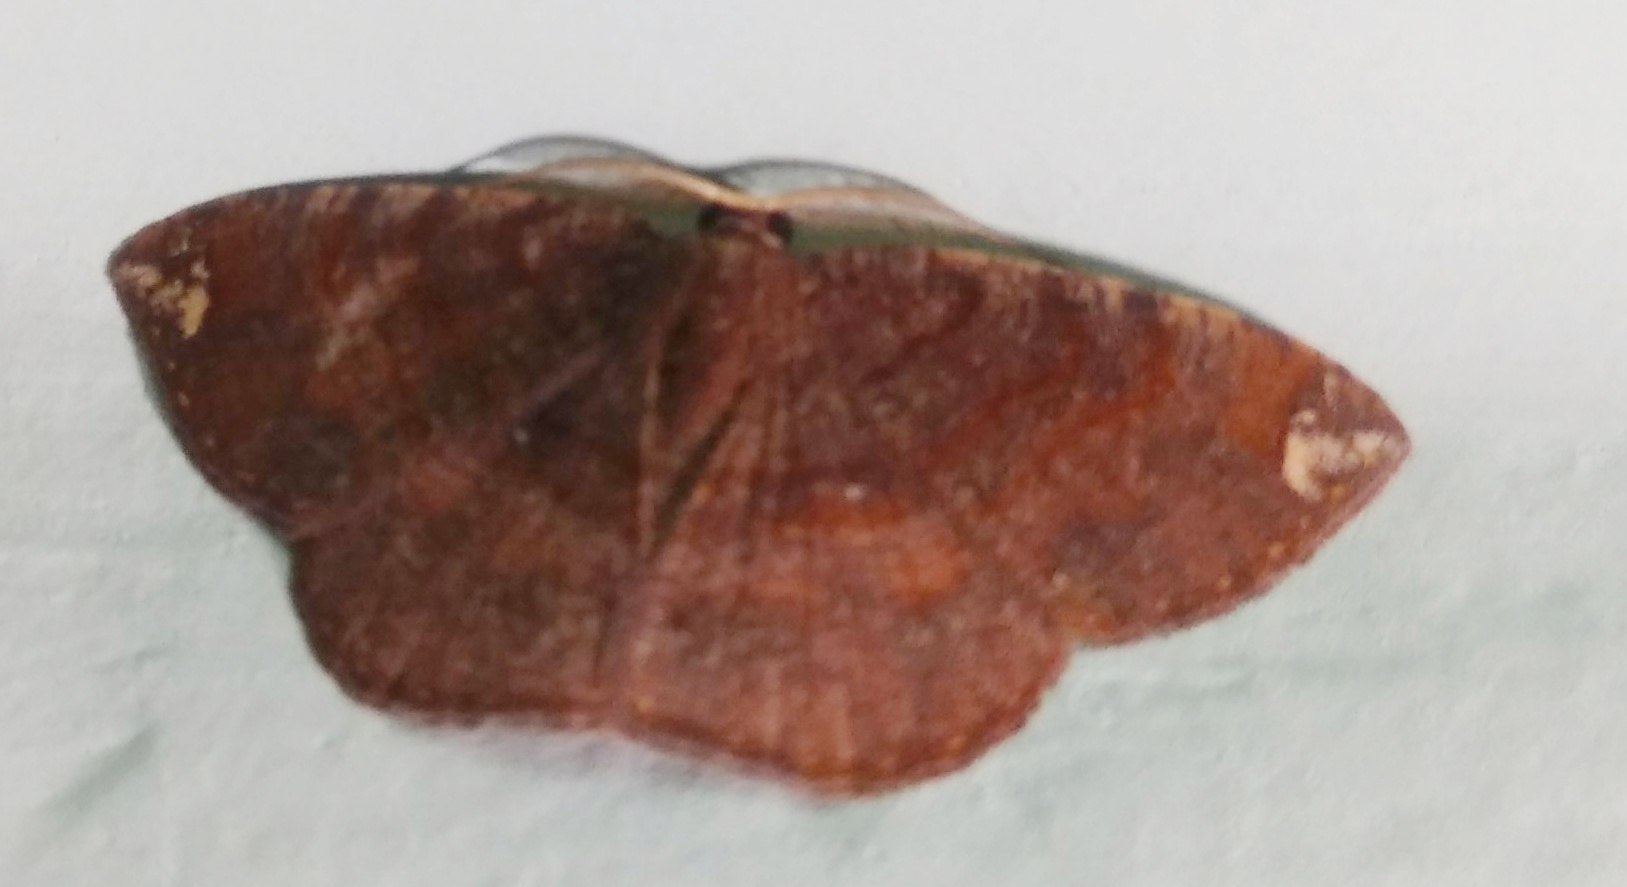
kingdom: Animalia
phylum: Arthropoda
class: Insecta
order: Lepidoptera
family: Geometridae
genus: Astygisa
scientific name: Astygisa albopunctata
